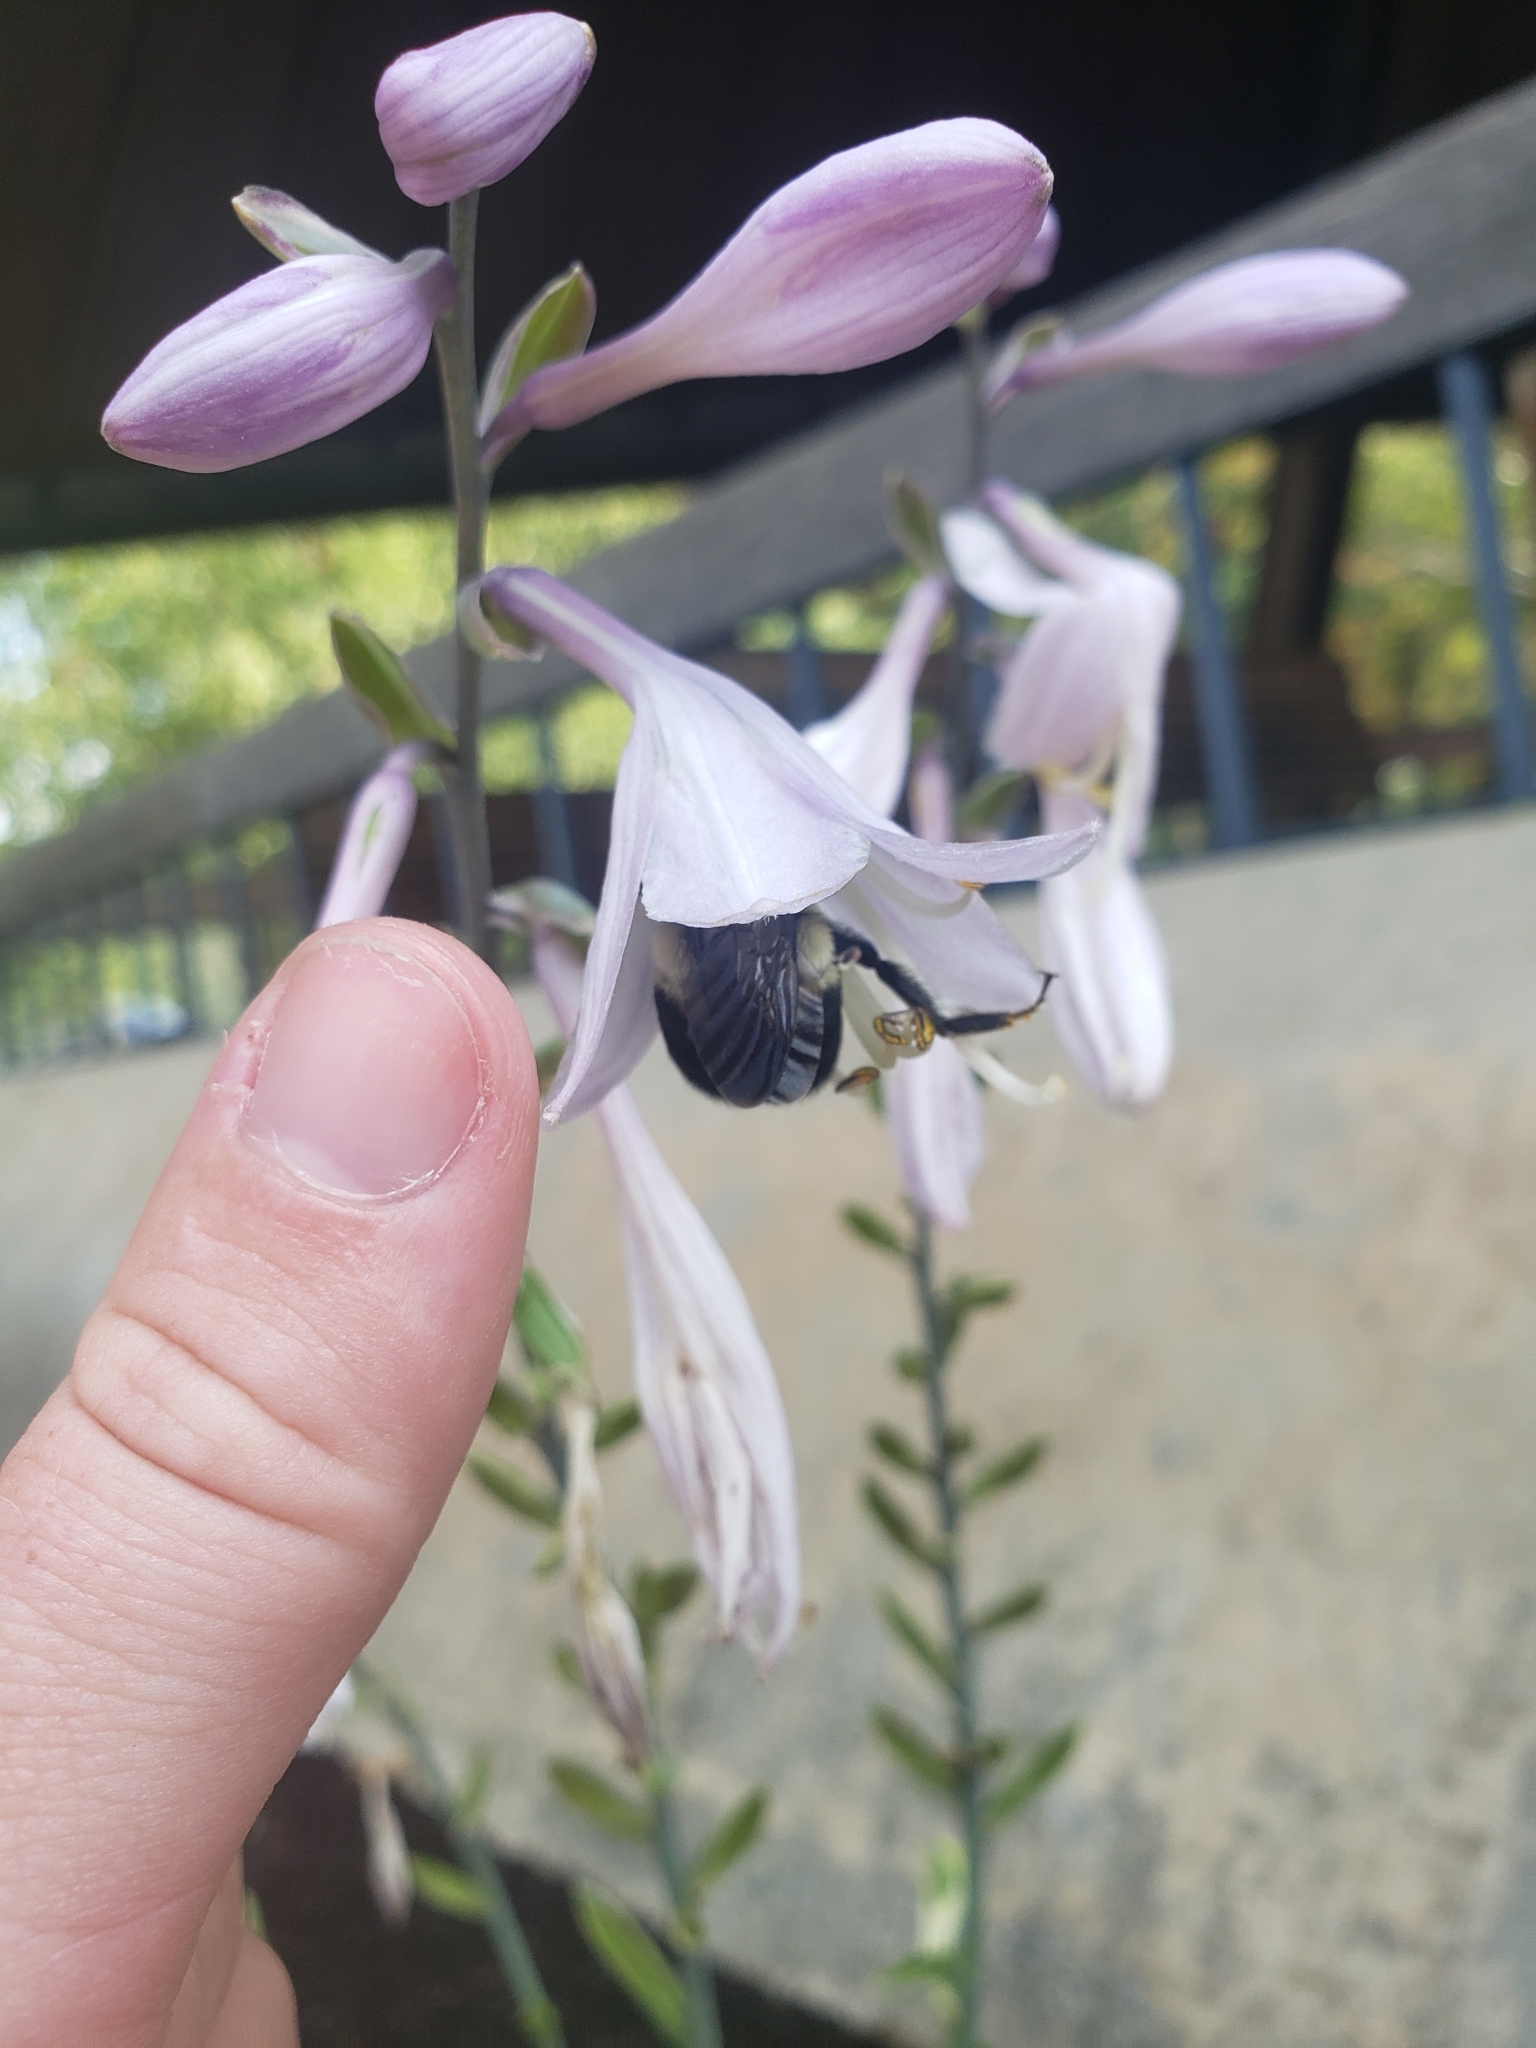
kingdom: Animalia
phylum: Arthropoda
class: Insecta
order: Hymenoptera
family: Apidae
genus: Bombus
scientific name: Bombus griseocollis
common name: Brown-belted bumble bee
